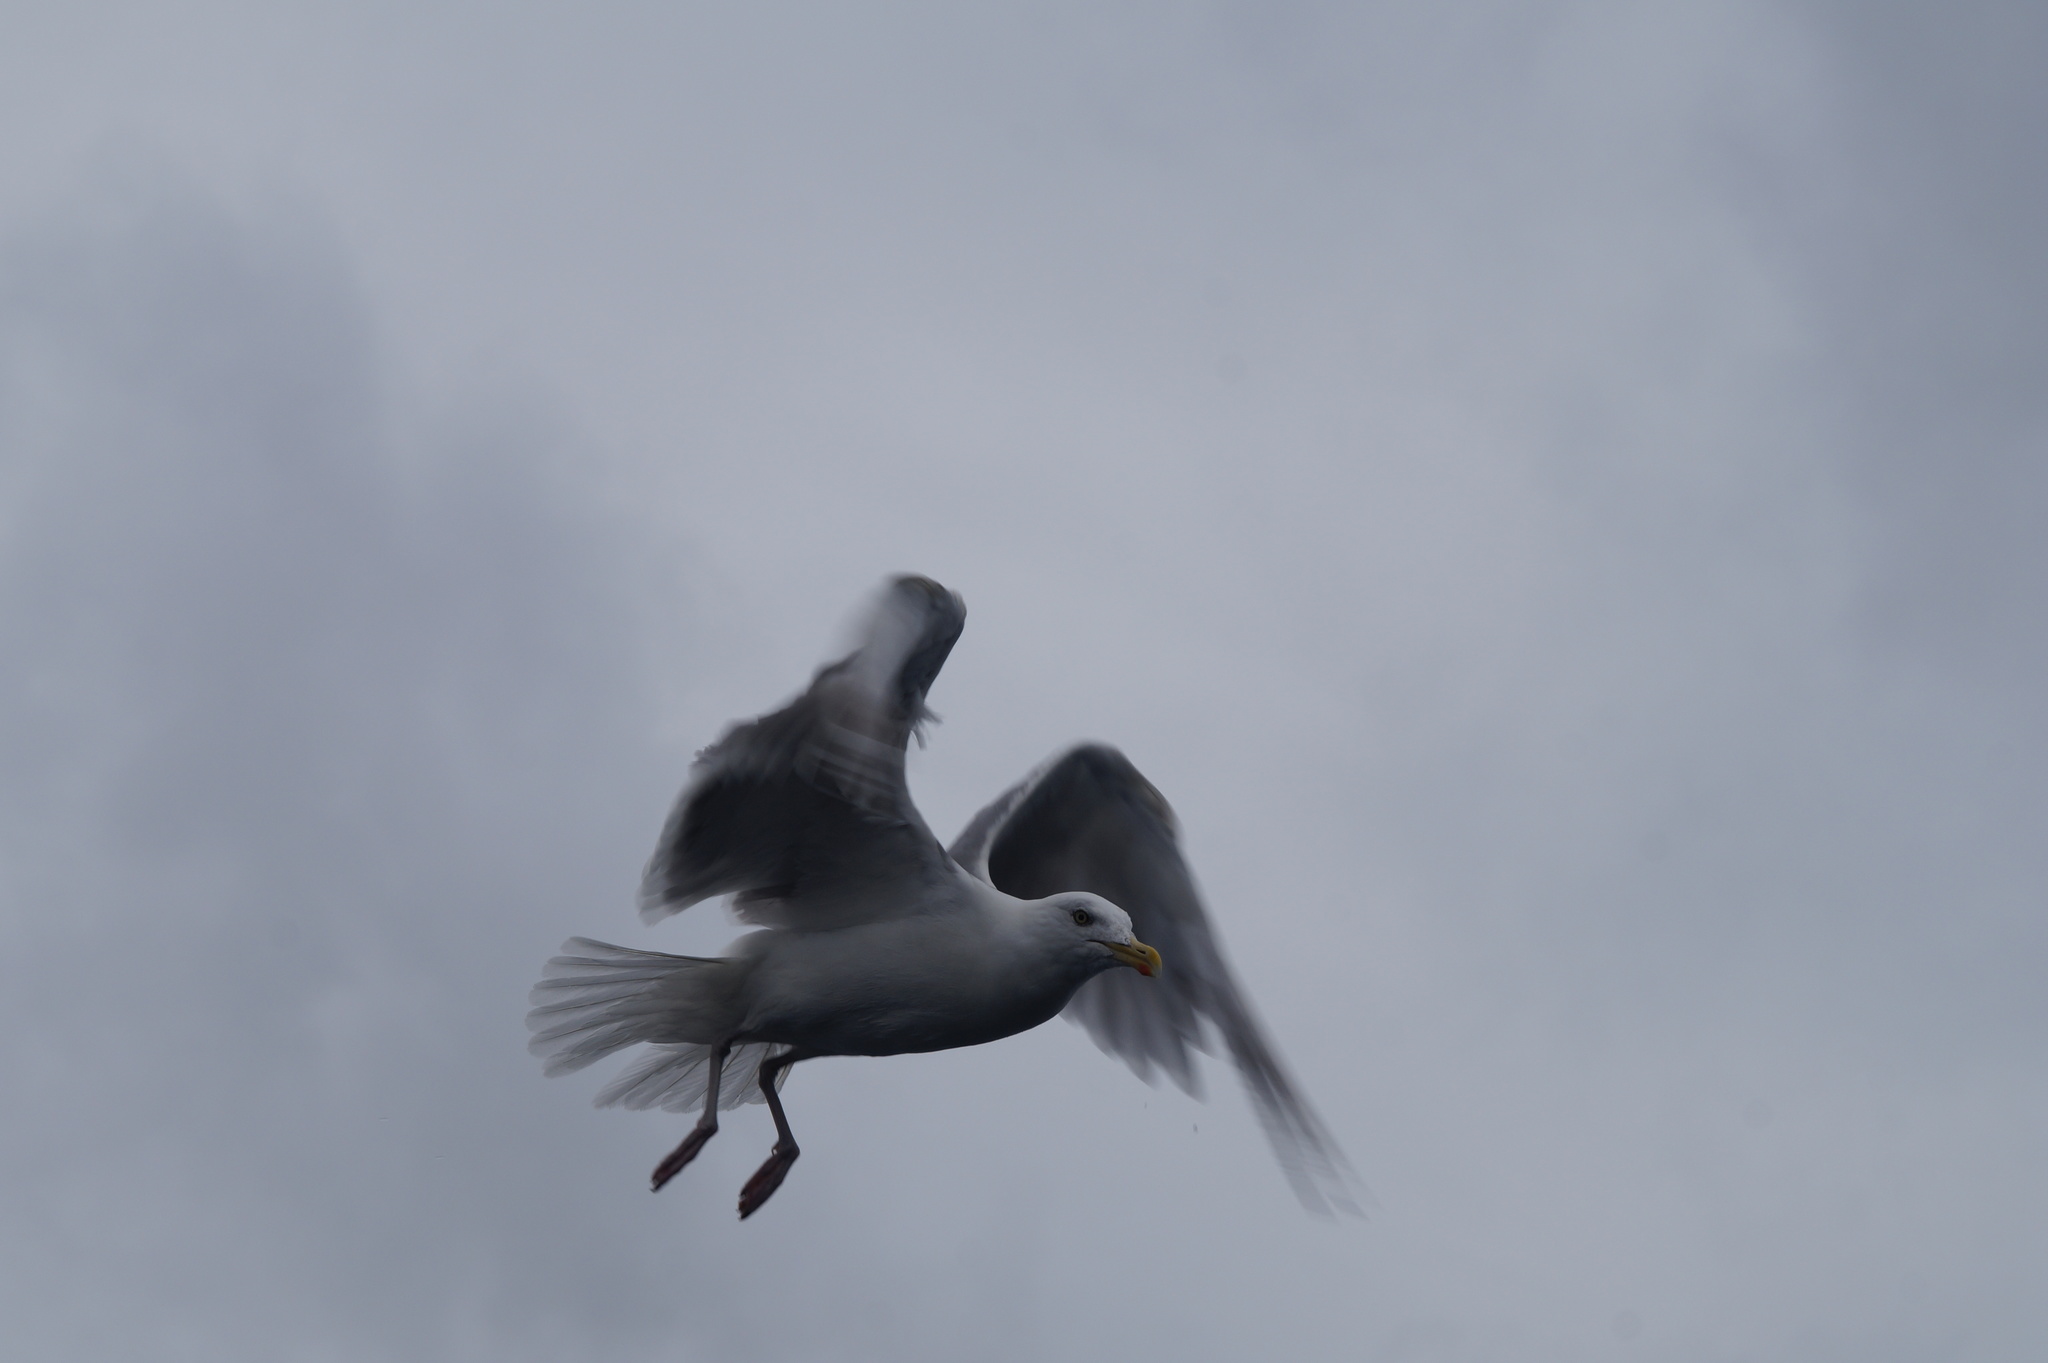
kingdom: Animalia
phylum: Chordata
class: Aves
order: Charadriiformes
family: Laridae
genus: Larus
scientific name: Larus argentatus
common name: Herring gull
